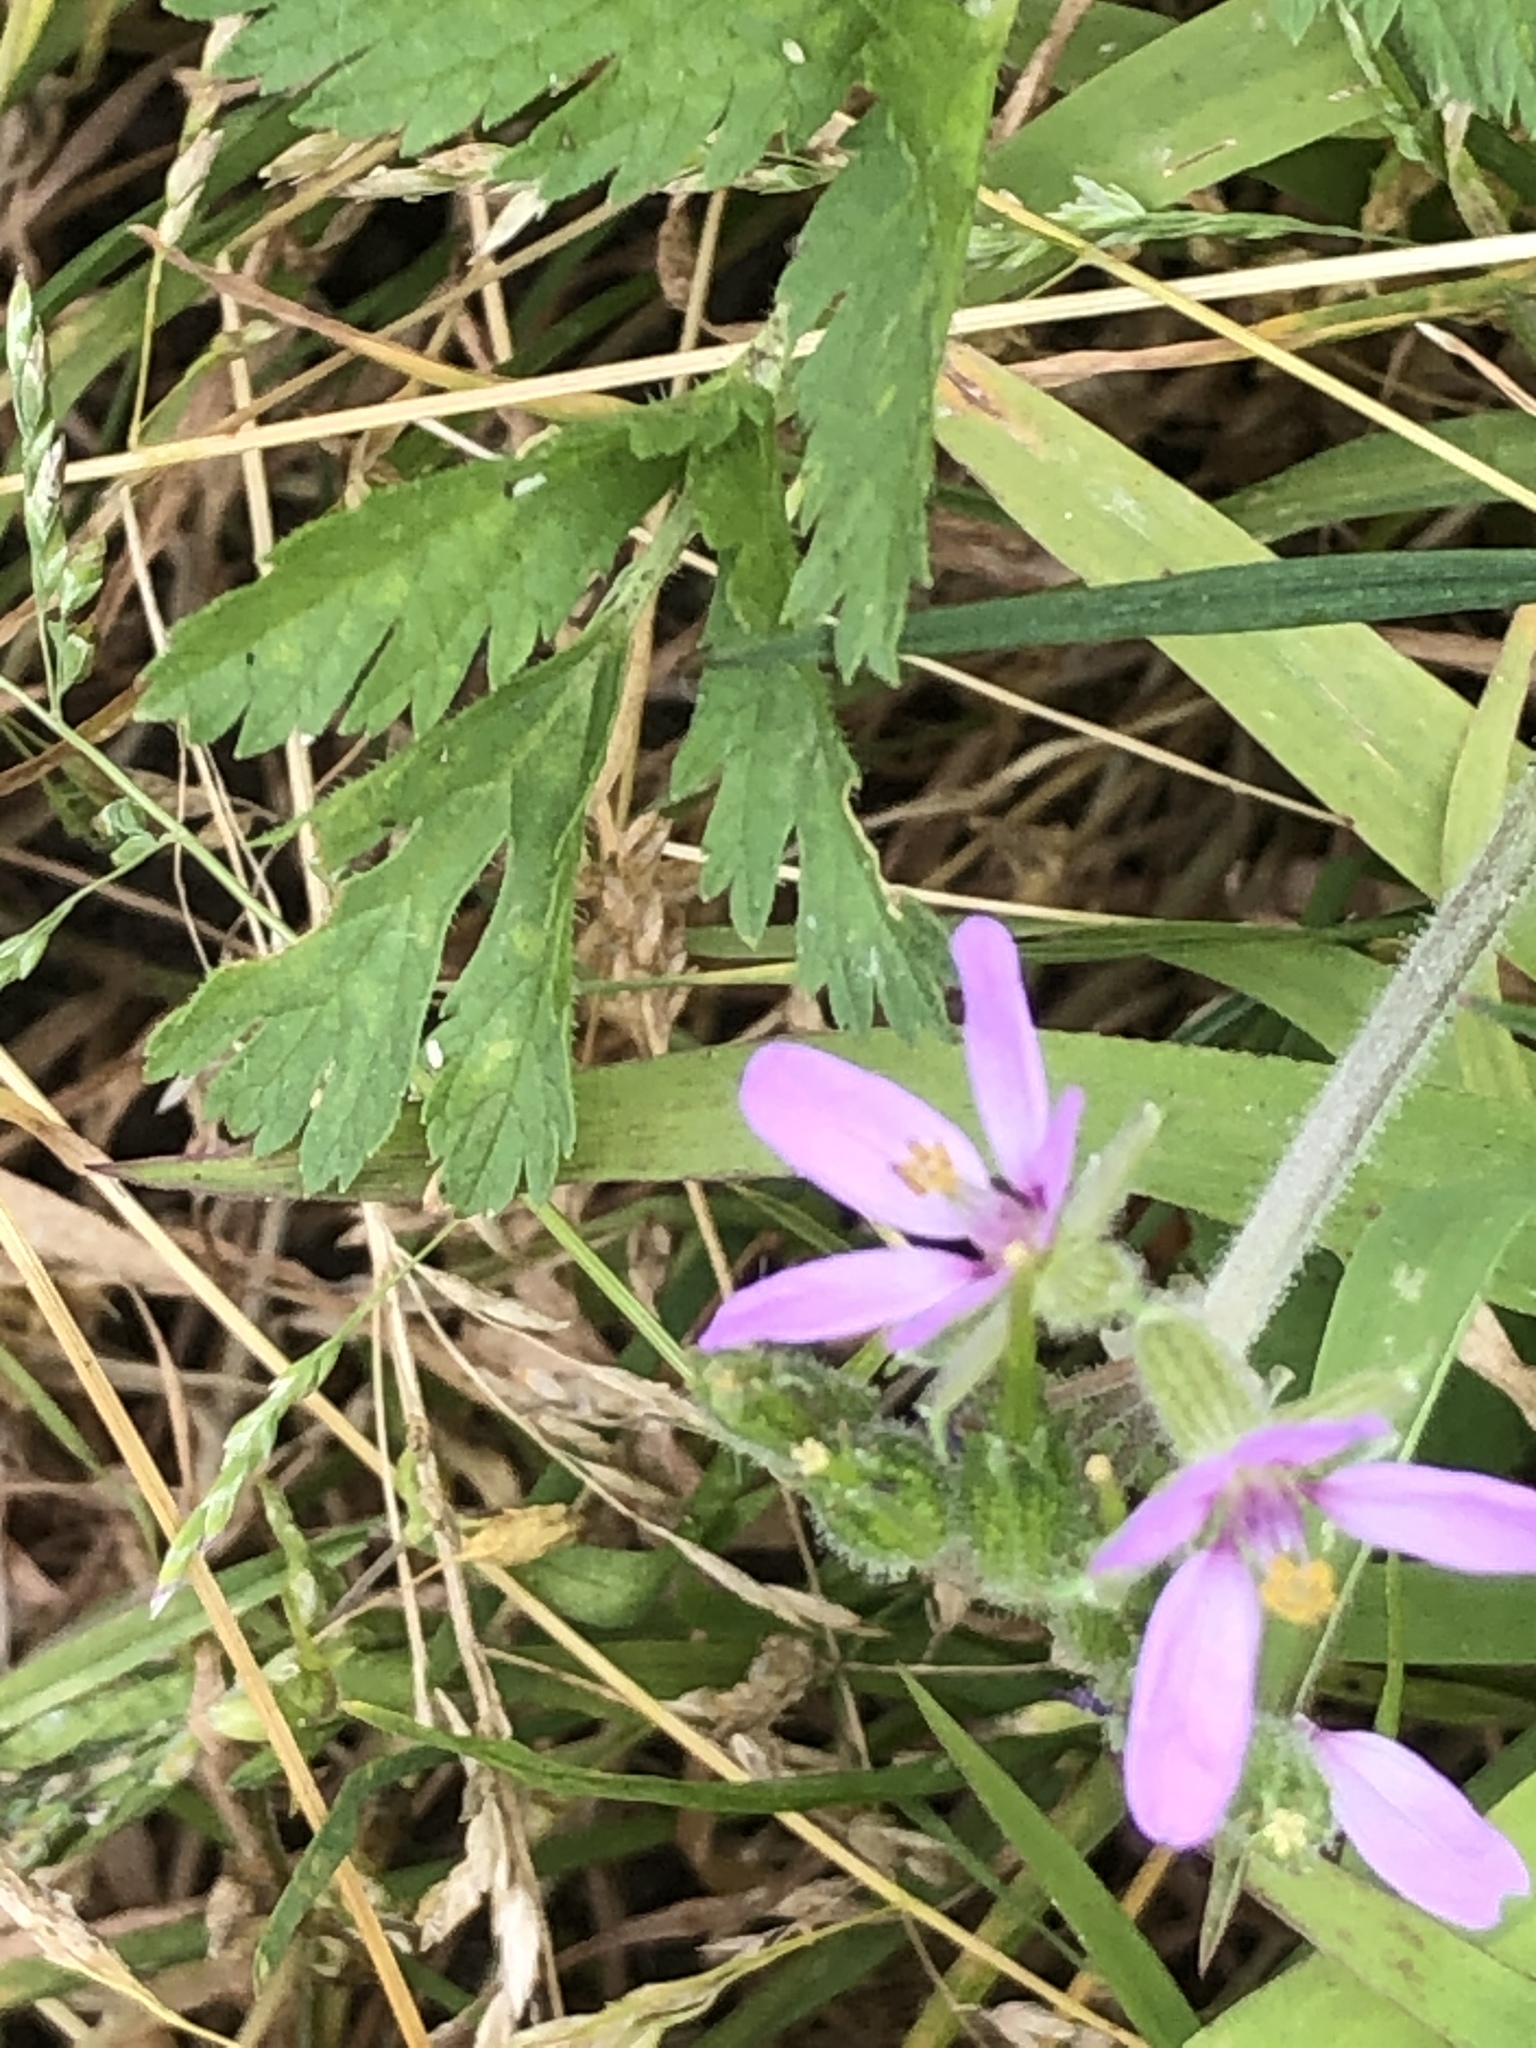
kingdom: Plantae
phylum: Tracheophyta
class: Magnoliopsida
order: Geraniales
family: Geraniaceae
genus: Erodium
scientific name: Erodium moschatum
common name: Musk stork's-bill
